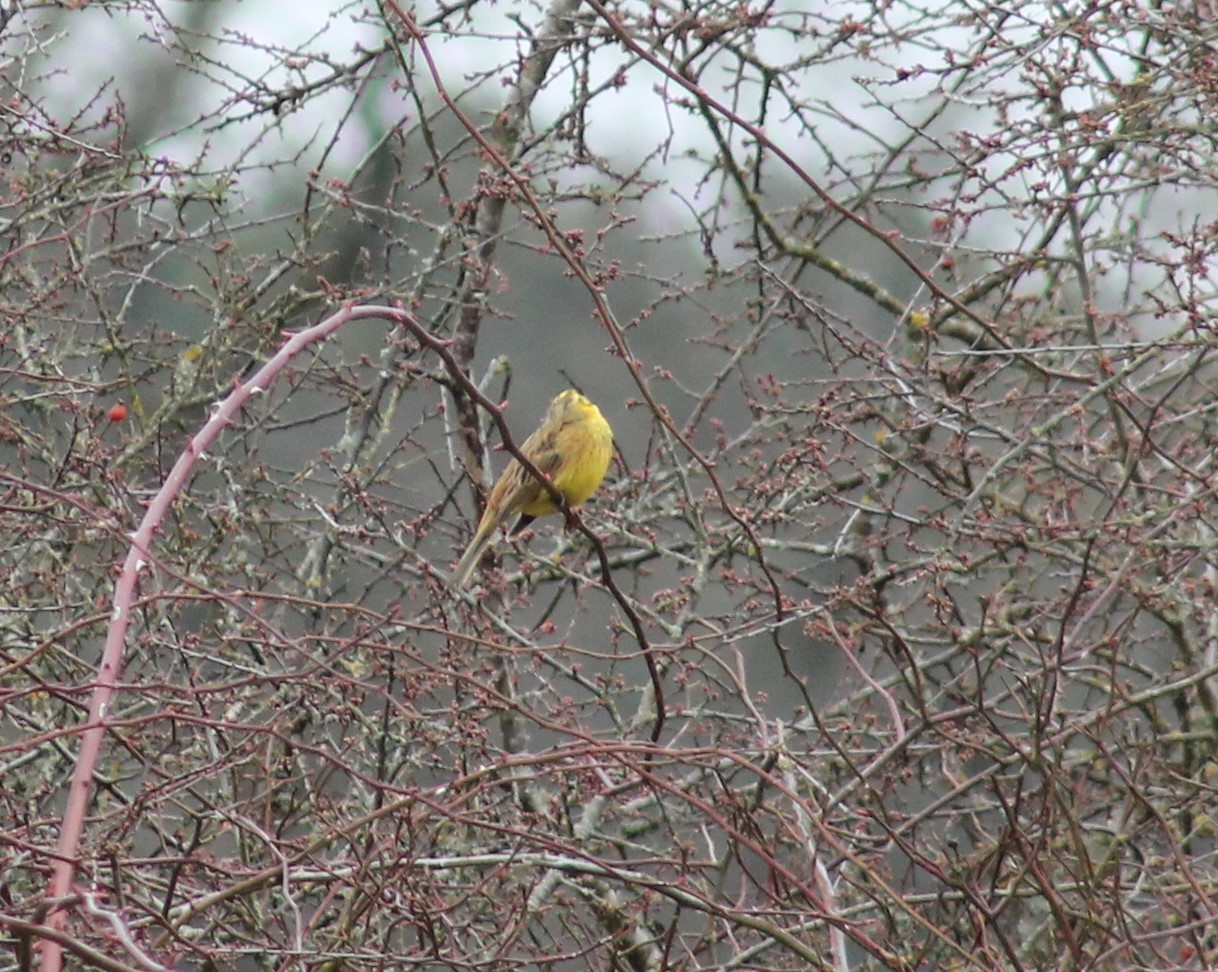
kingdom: Animalia
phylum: Chordata
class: Aves
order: Passeriformes
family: Emberizidae
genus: Emberiza
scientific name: Emberiza citrinella
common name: Yellowhammer
